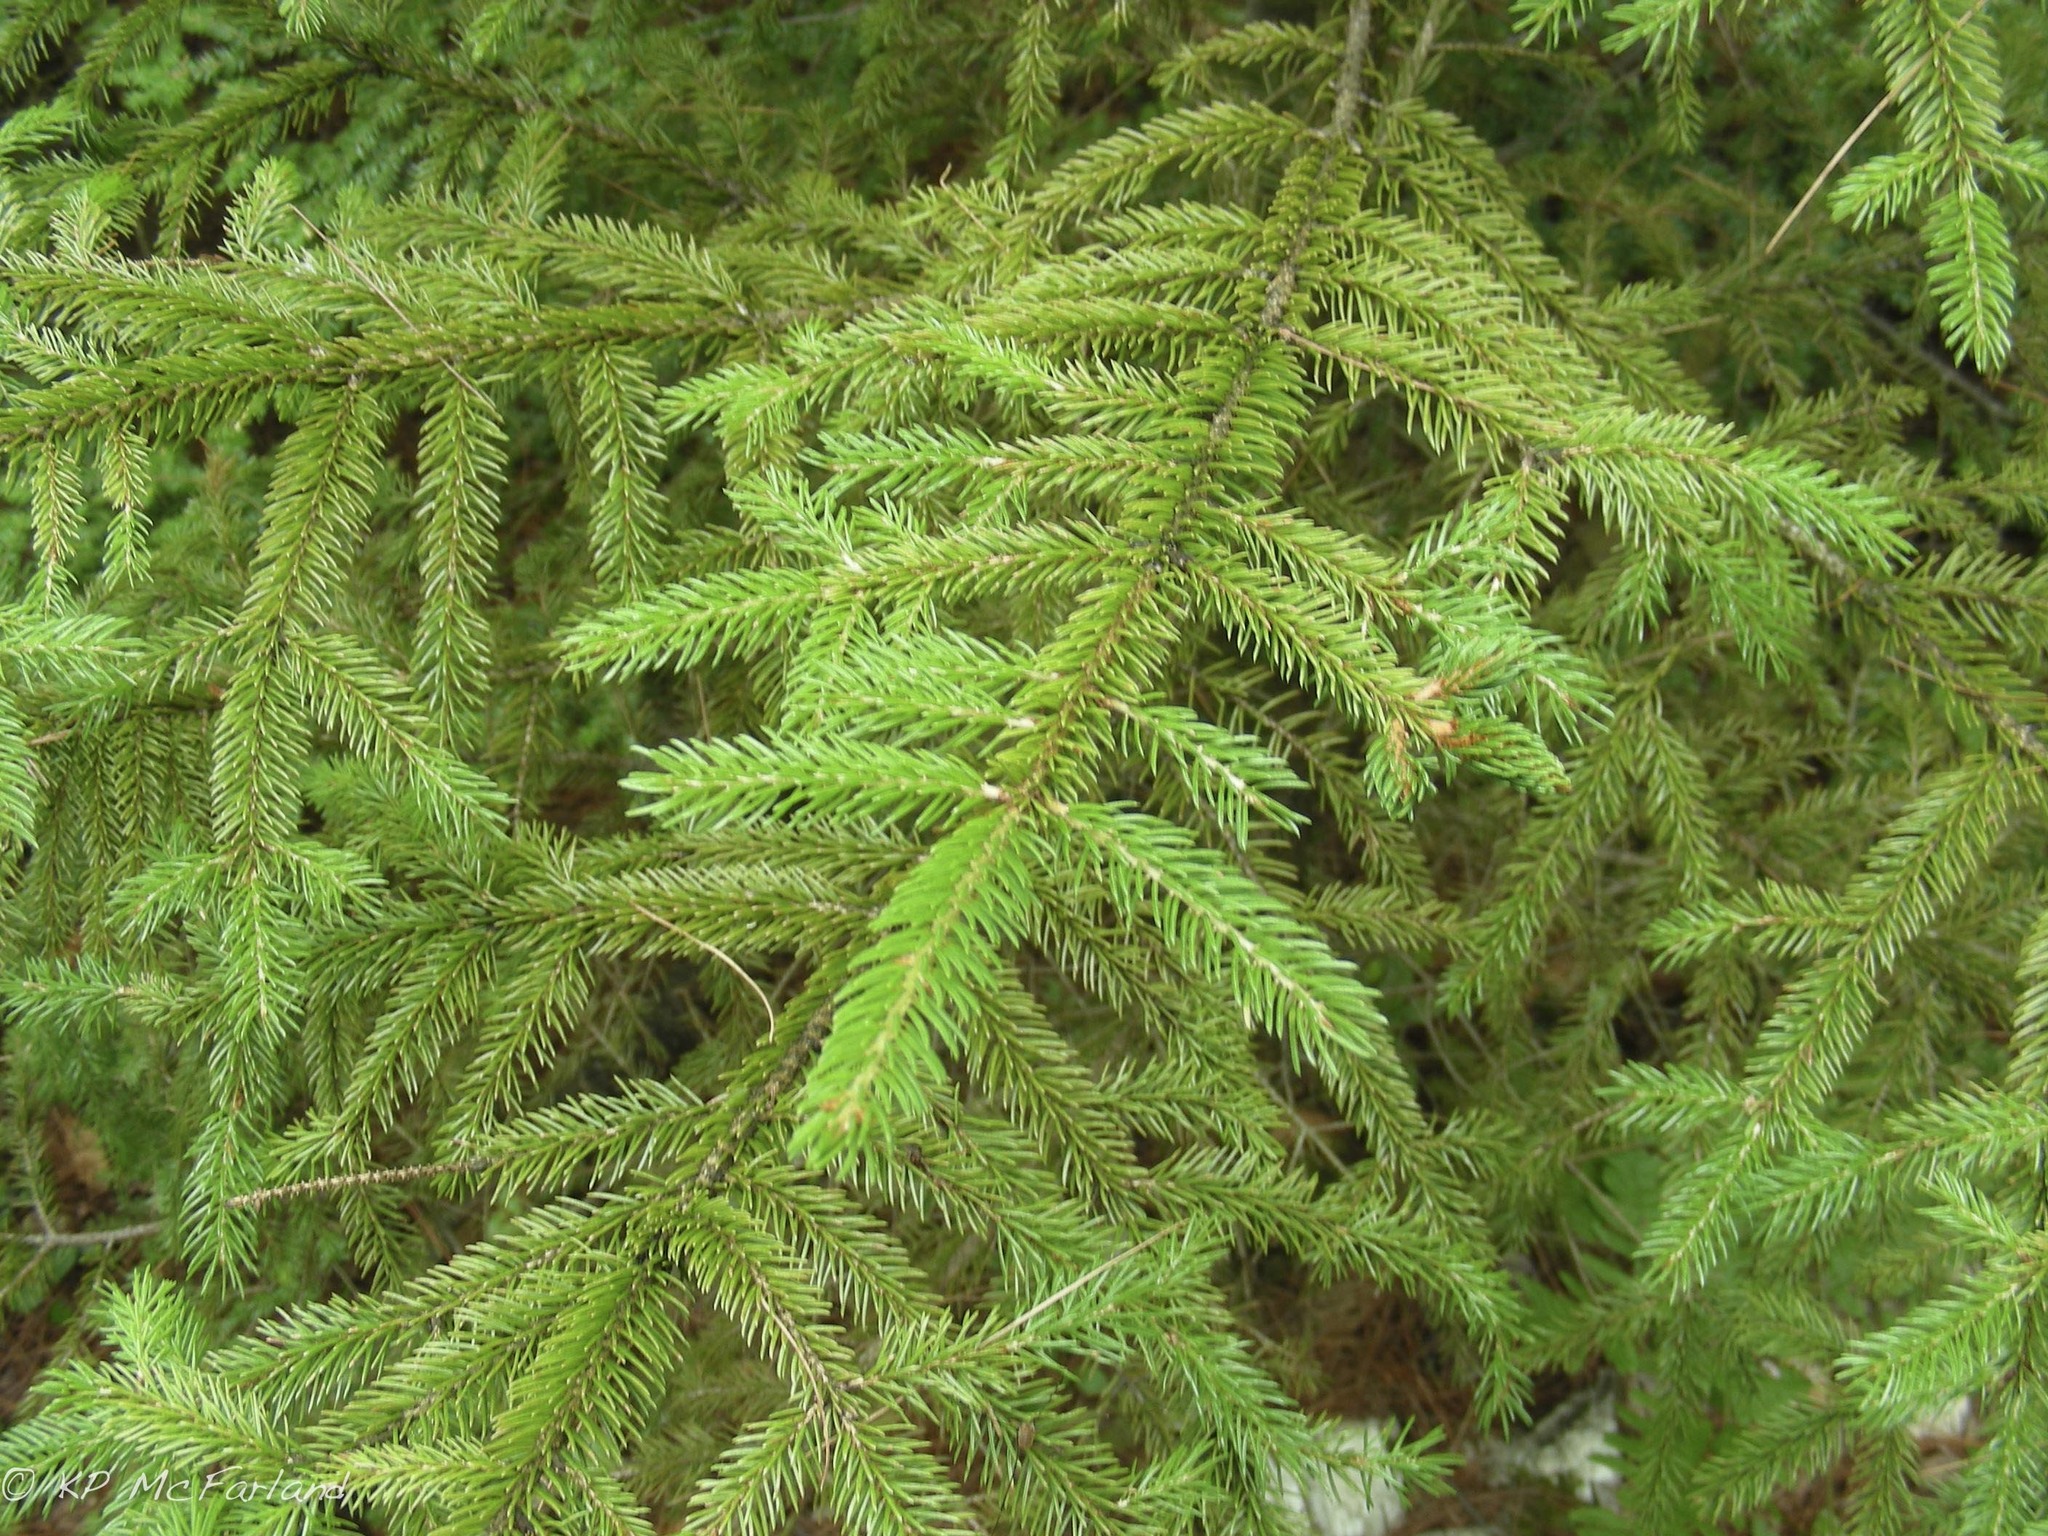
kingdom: Plantae
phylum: Tracheophyta
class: Pinopsida
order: Pinales
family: Pinaceae
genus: Picea
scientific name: Picea rubens
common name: Red spruce
